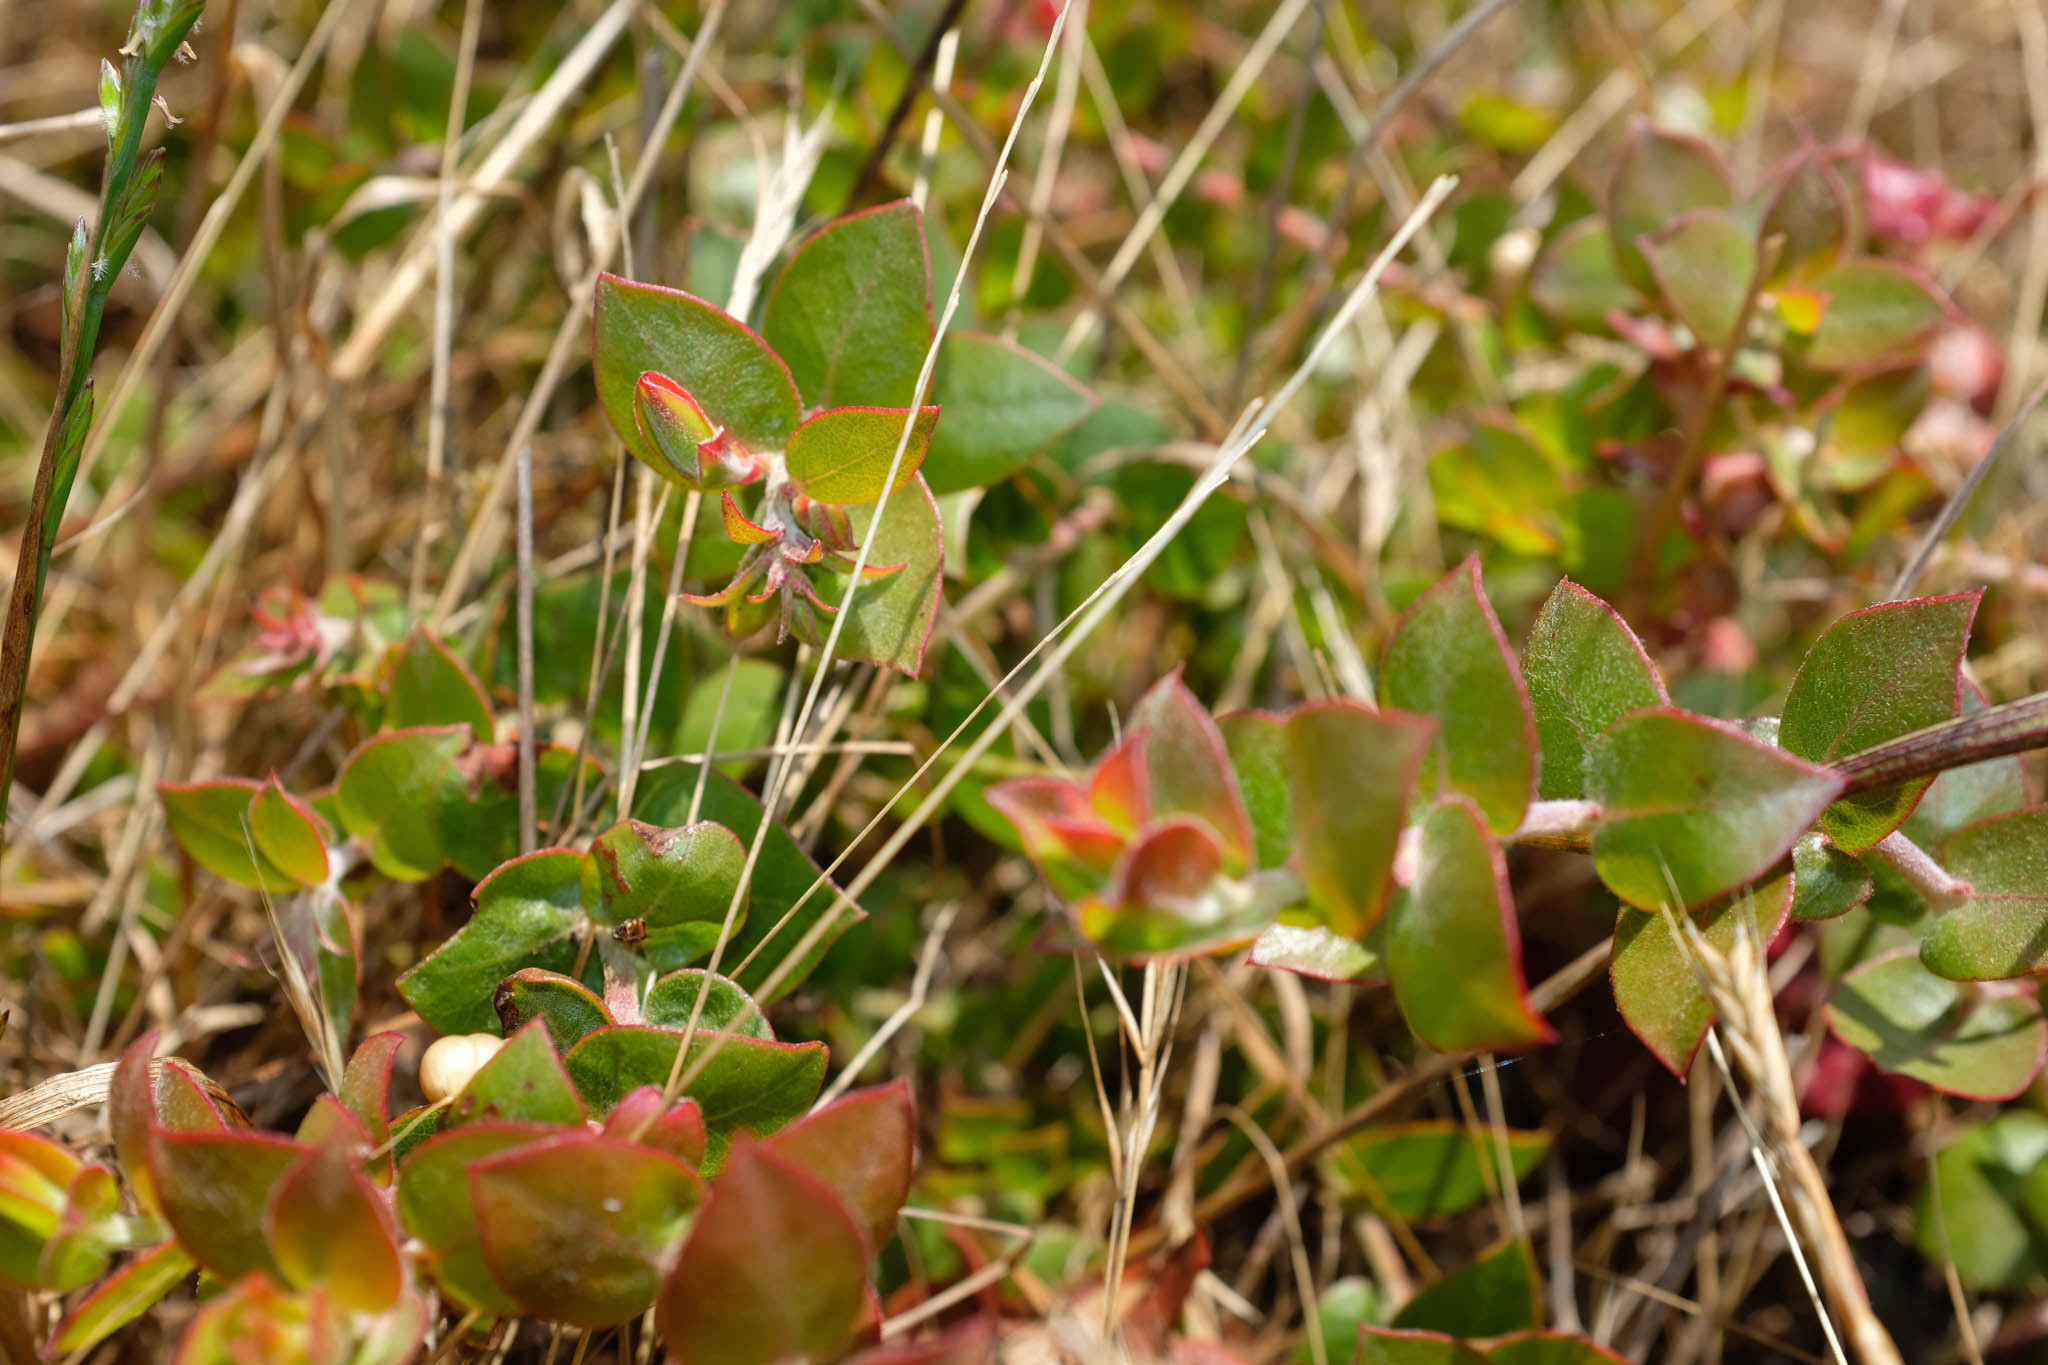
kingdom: Plantae
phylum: Tracheophyta
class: Magnoliopsida
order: Ericales
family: Ericaceae
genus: Arctostaphylos
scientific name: Arctostaphylos cruzensis
